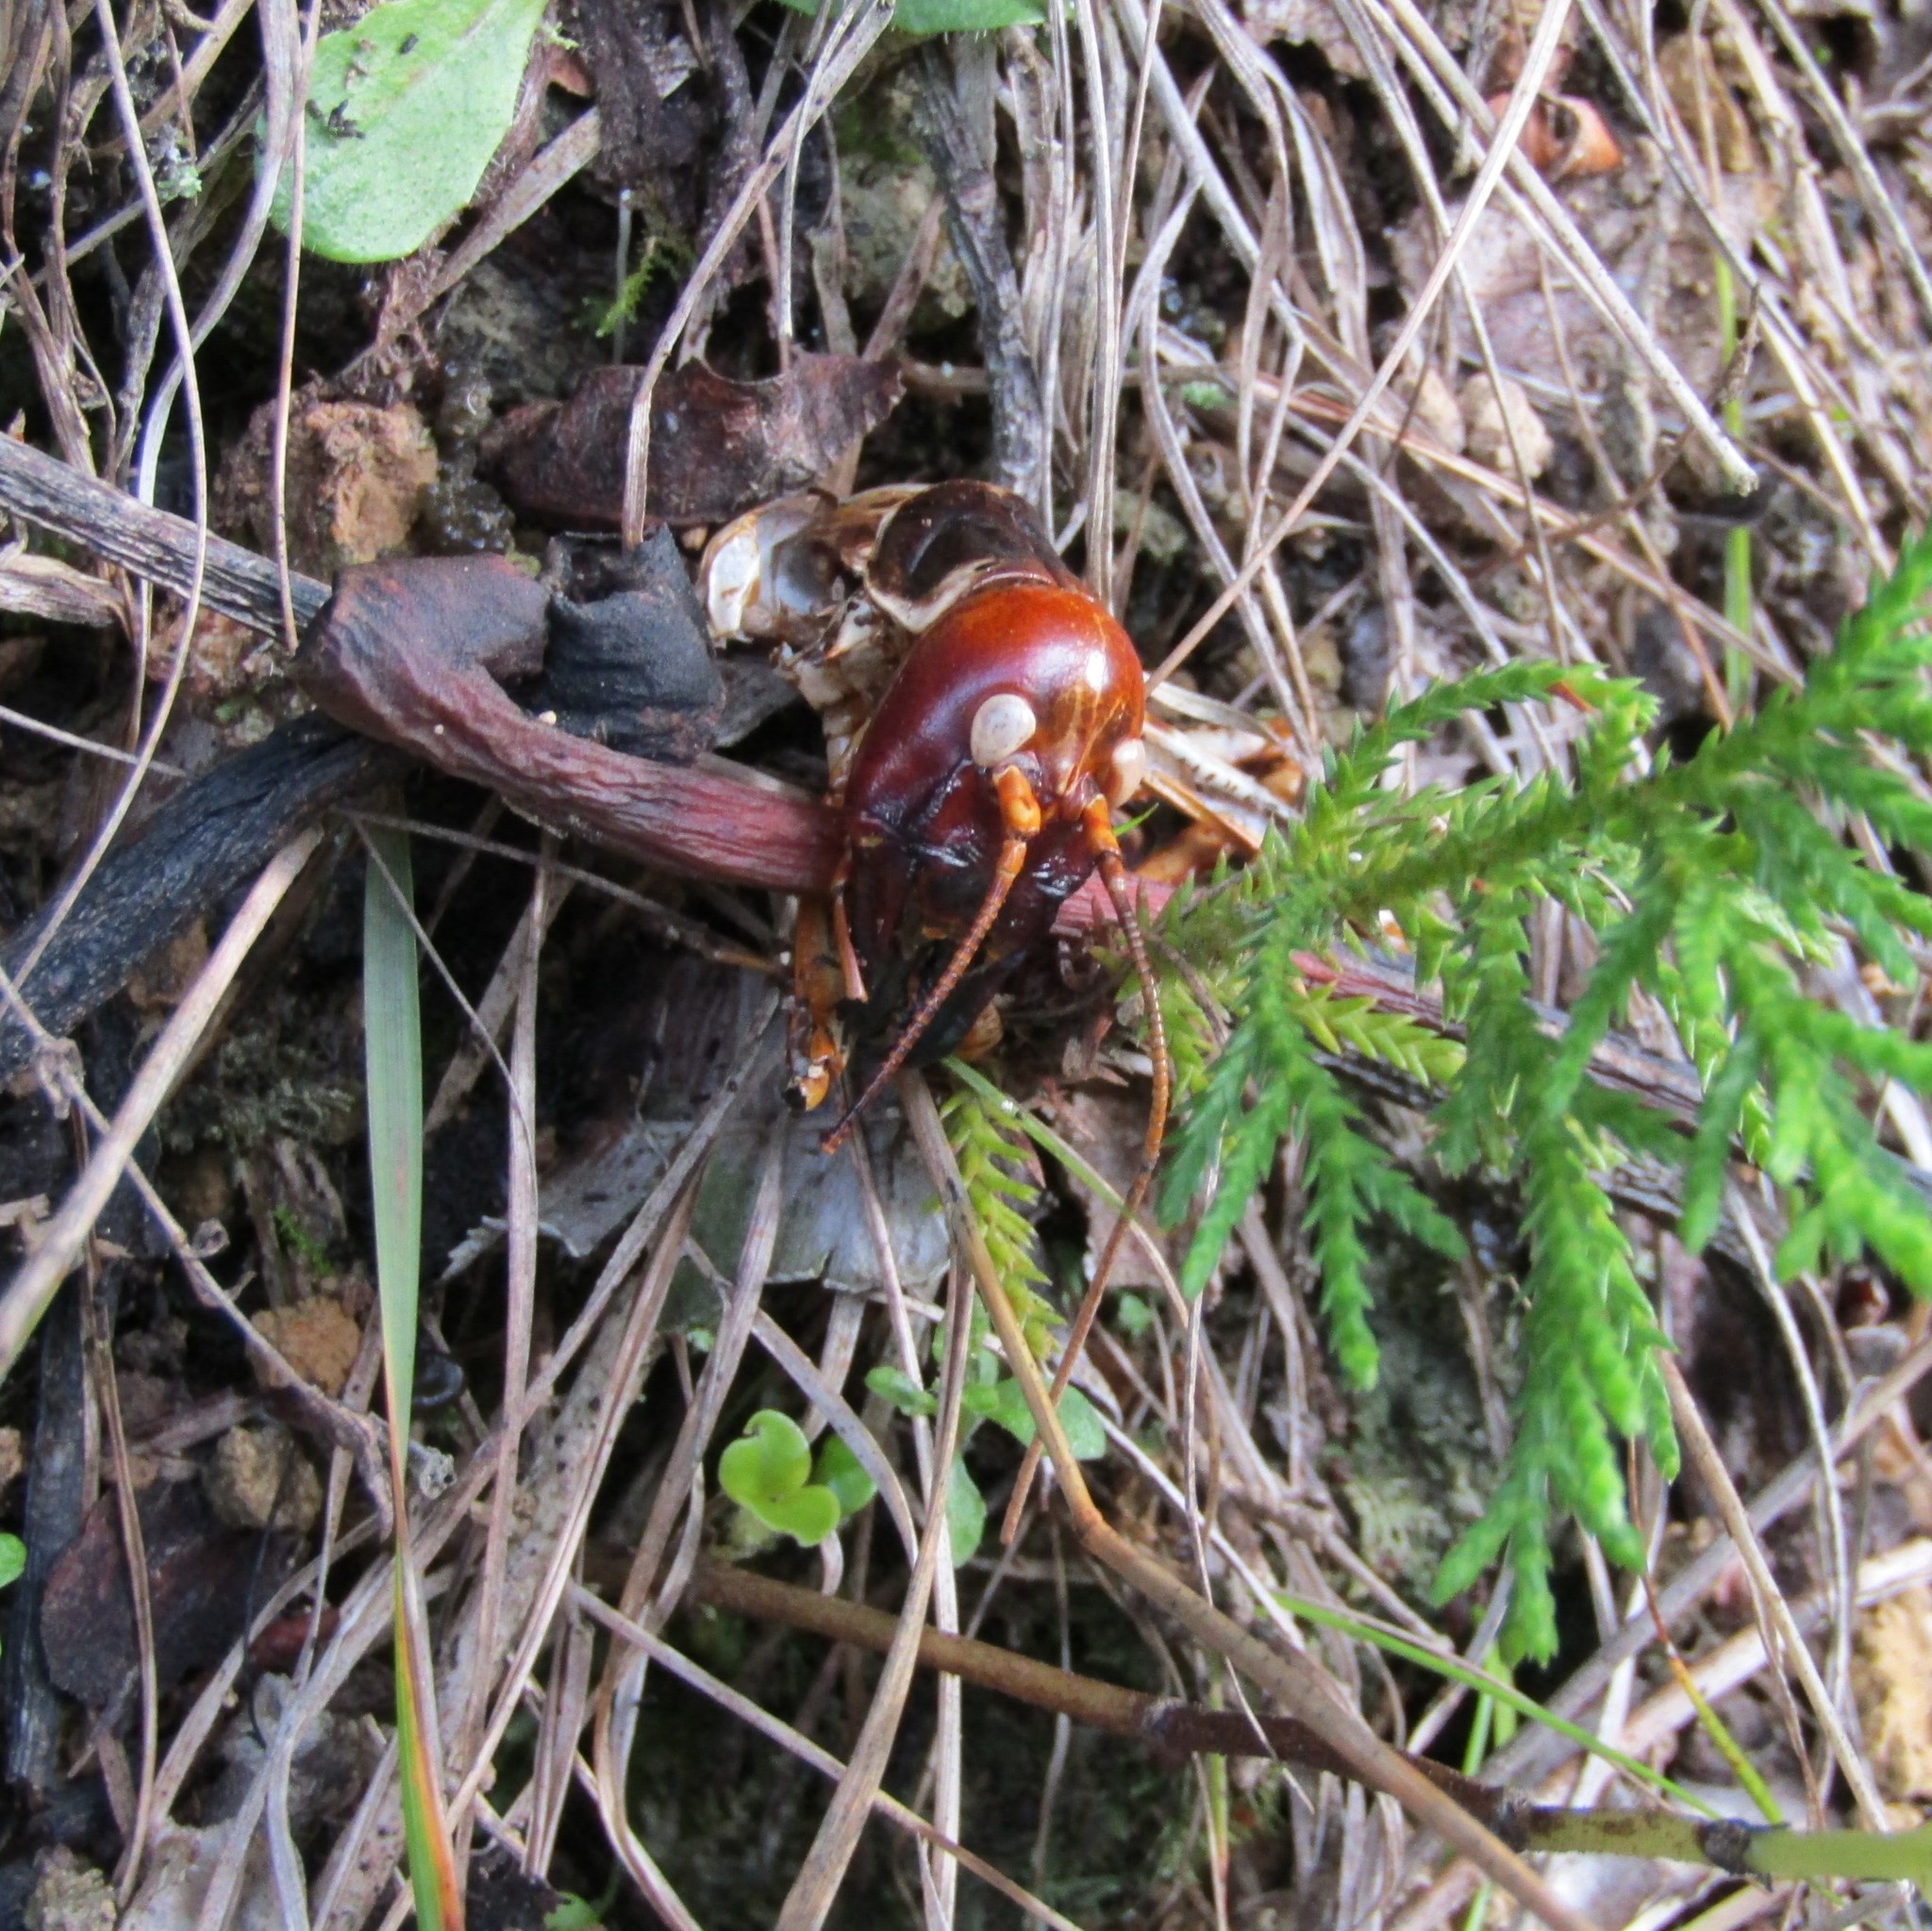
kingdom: Animalia
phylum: Arthropoda
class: Insecta
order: Orthoptera
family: Anostostomatidae
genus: Hemideina
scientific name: Hemideina crassidens
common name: Wellington tree weta
